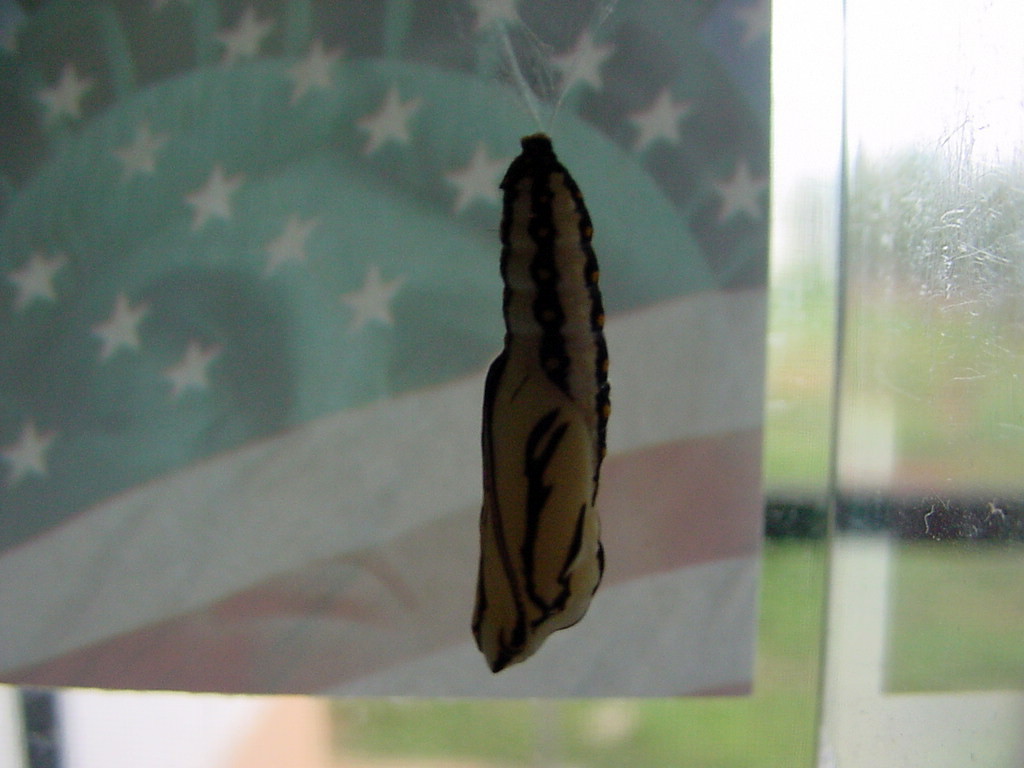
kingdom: Animalia
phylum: Arthropoda
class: Insecta
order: Lepidoptera
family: Nymphalidae
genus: Acraea
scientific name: Acraea terpsicore
